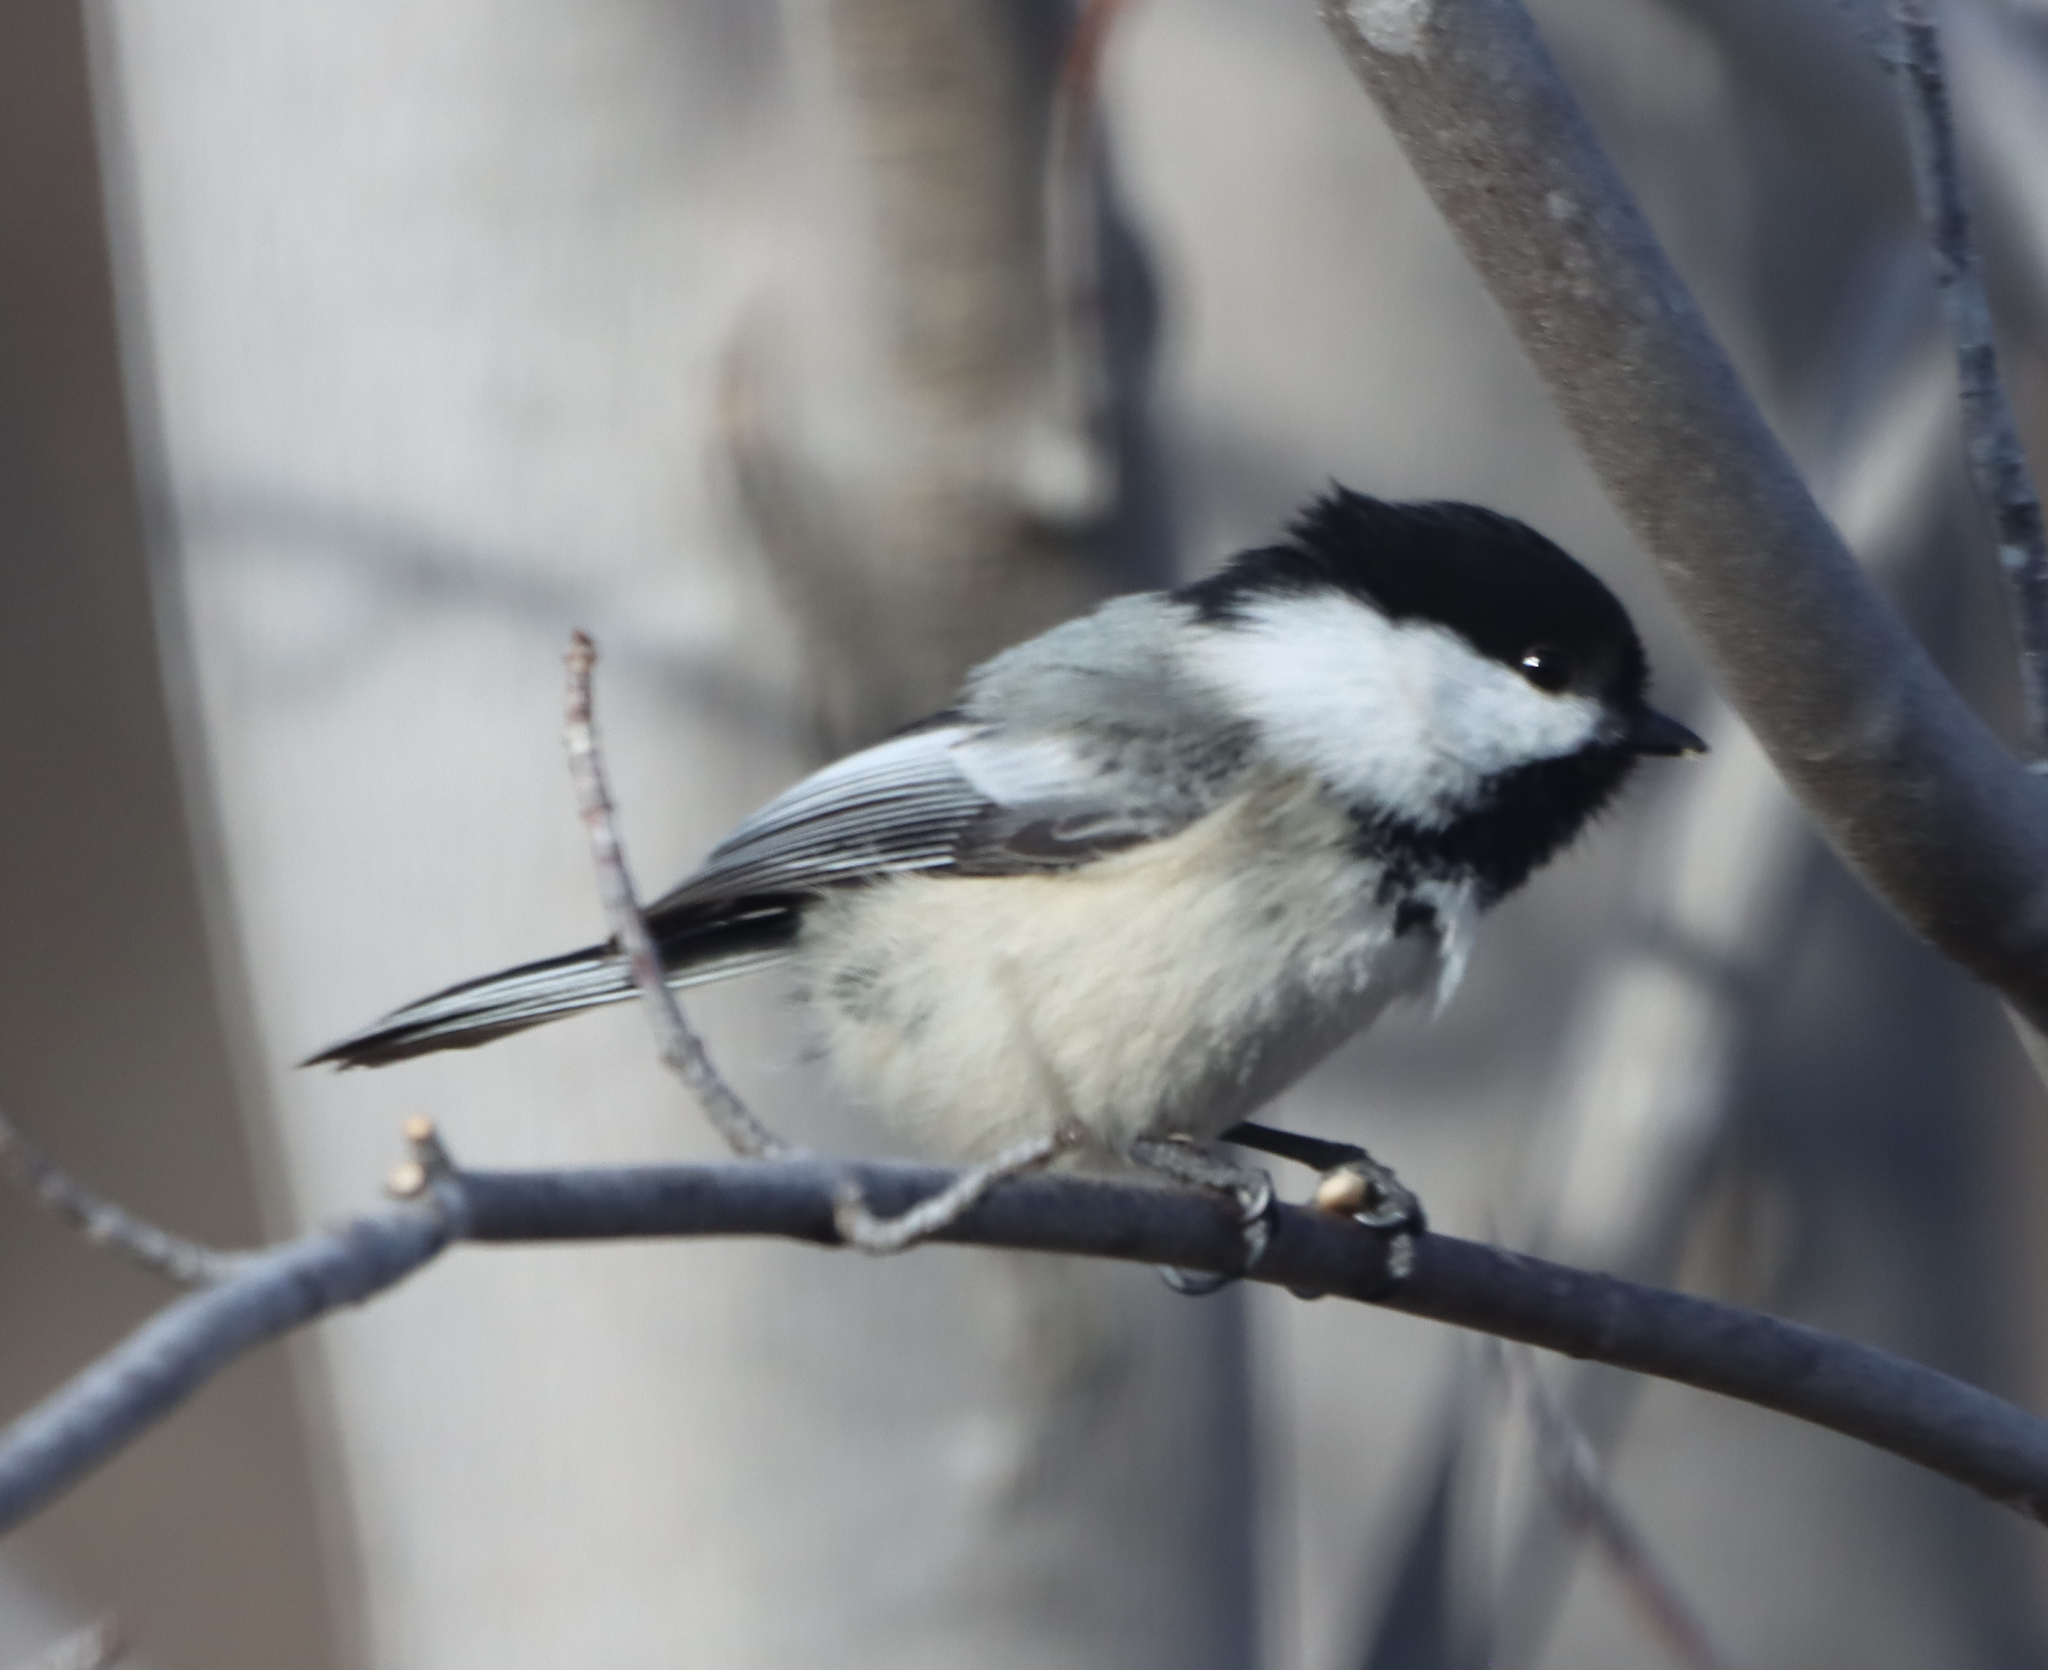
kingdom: Animalia
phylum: Chordata
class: Aves
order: Passeriformes
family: Paridae
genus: Poecile
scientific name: Poecile atricapillus
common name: Black-capped chickadee
